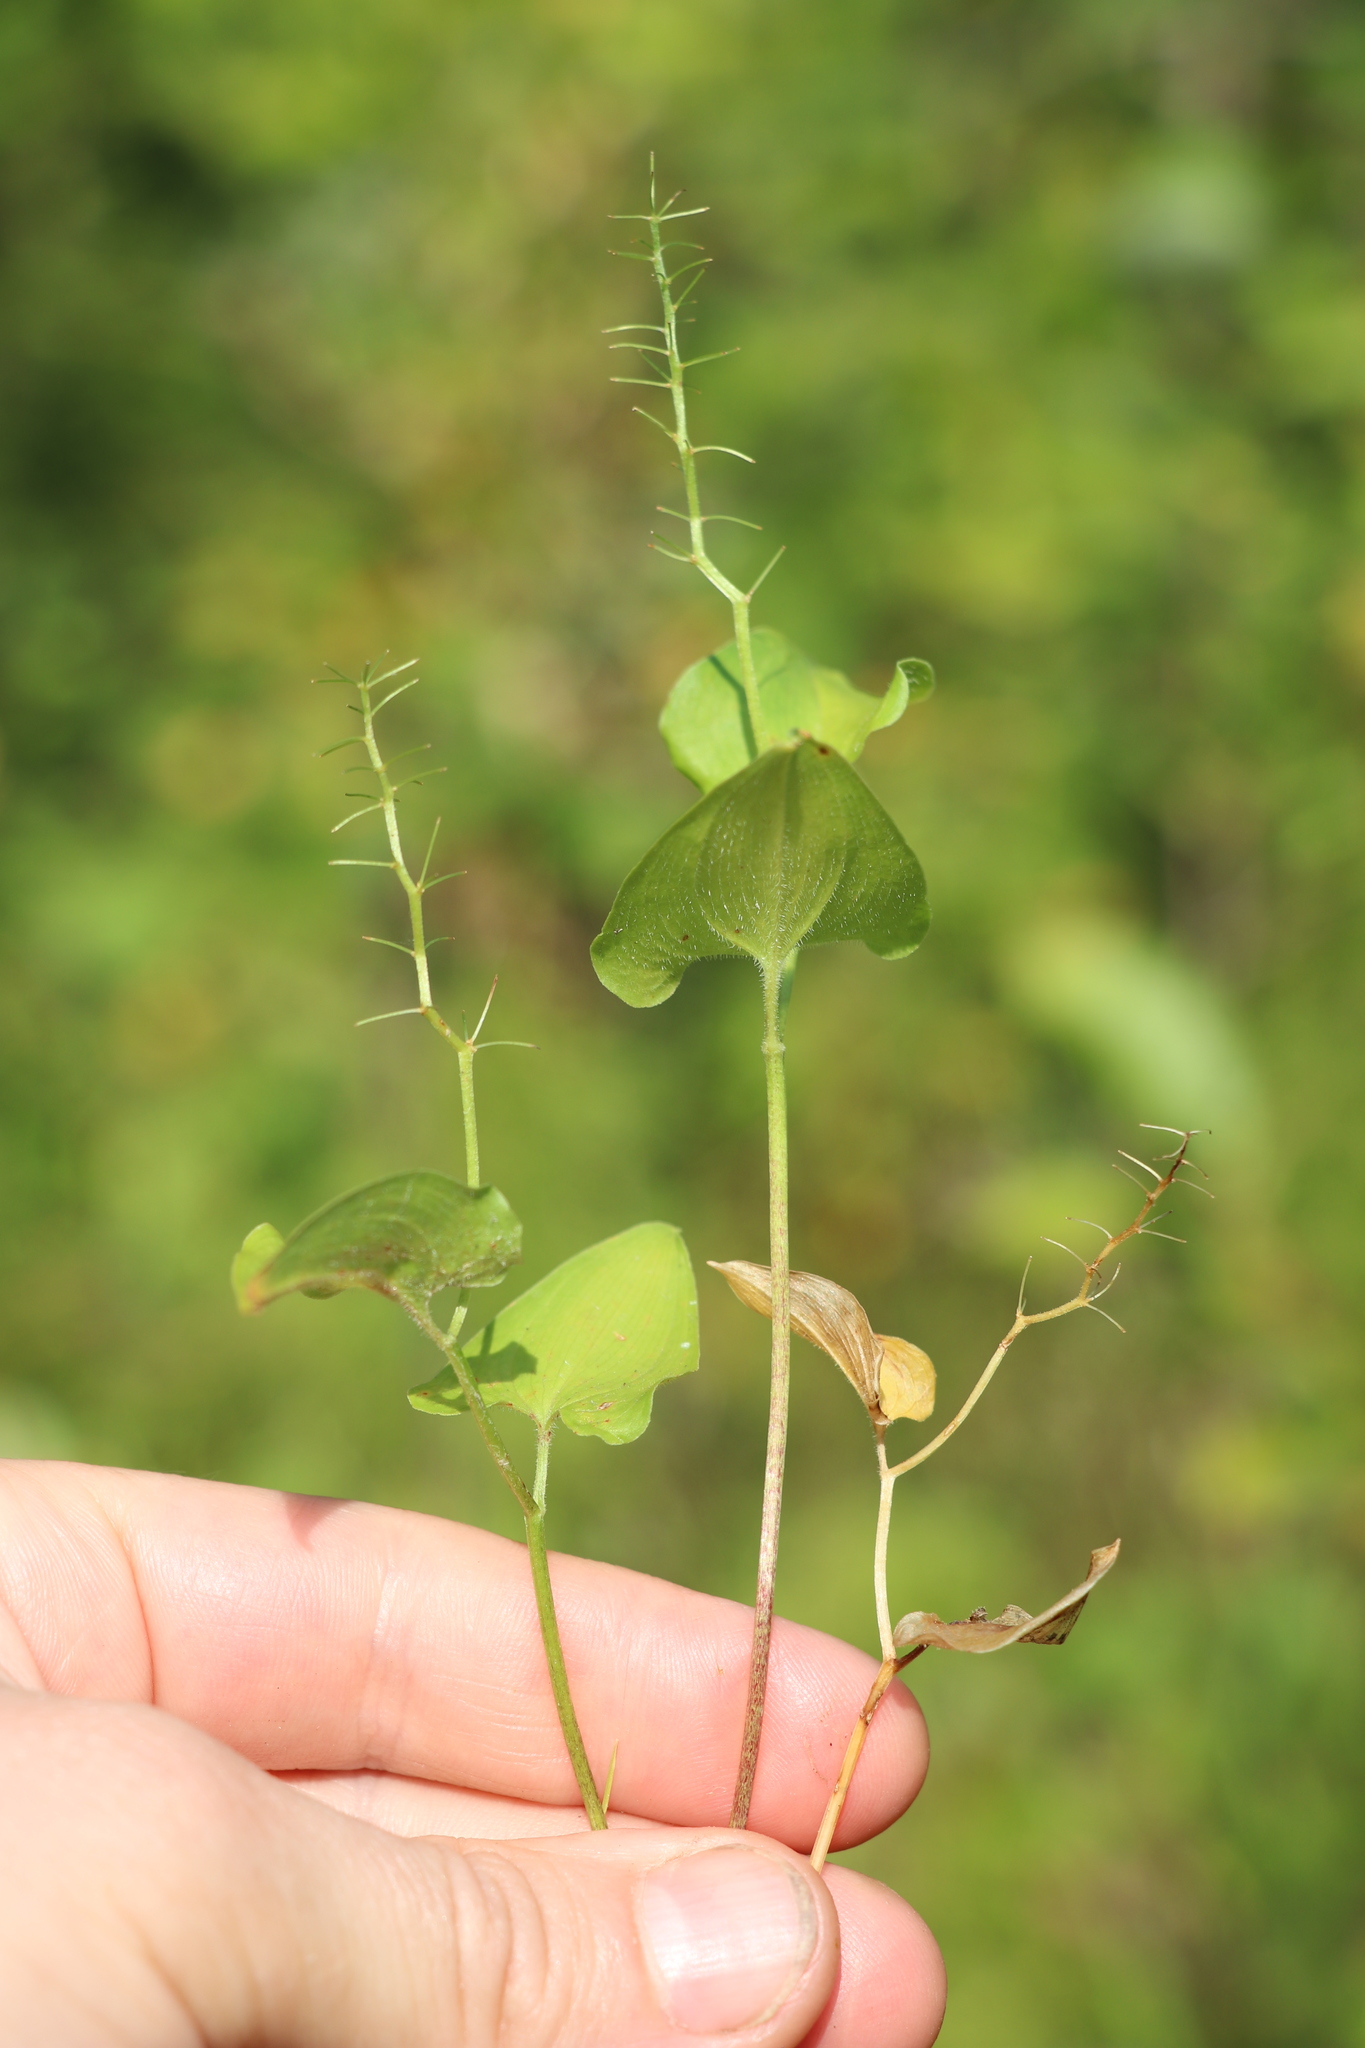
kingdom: Plantae
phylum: Tracheophyta
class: Liliopsida
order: Asparagales
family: Asparagaceae
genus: Maianthemum
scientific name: Maianthemum bifolium
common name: May lily
